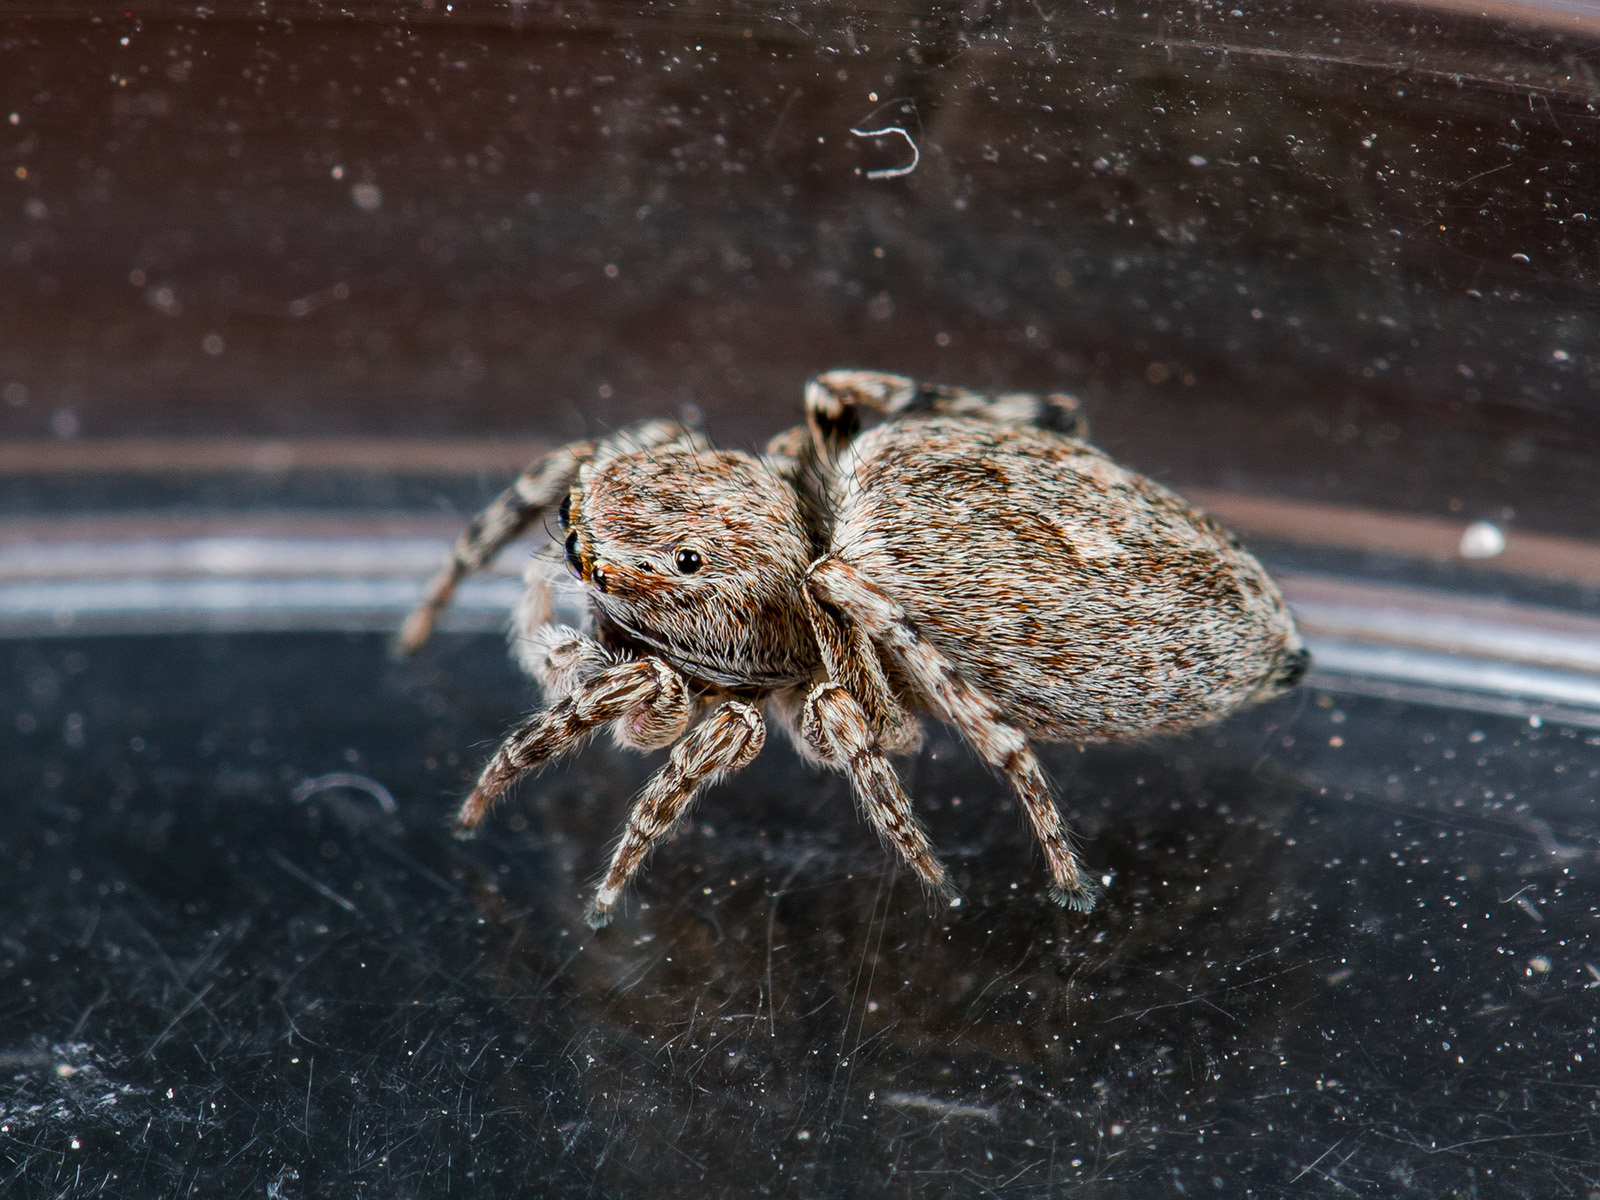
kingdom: Animalia
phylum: Arthropoda
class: Arachnida
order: Araneae
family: Salticidae
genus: Attulus
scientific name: Attulus mirandus
